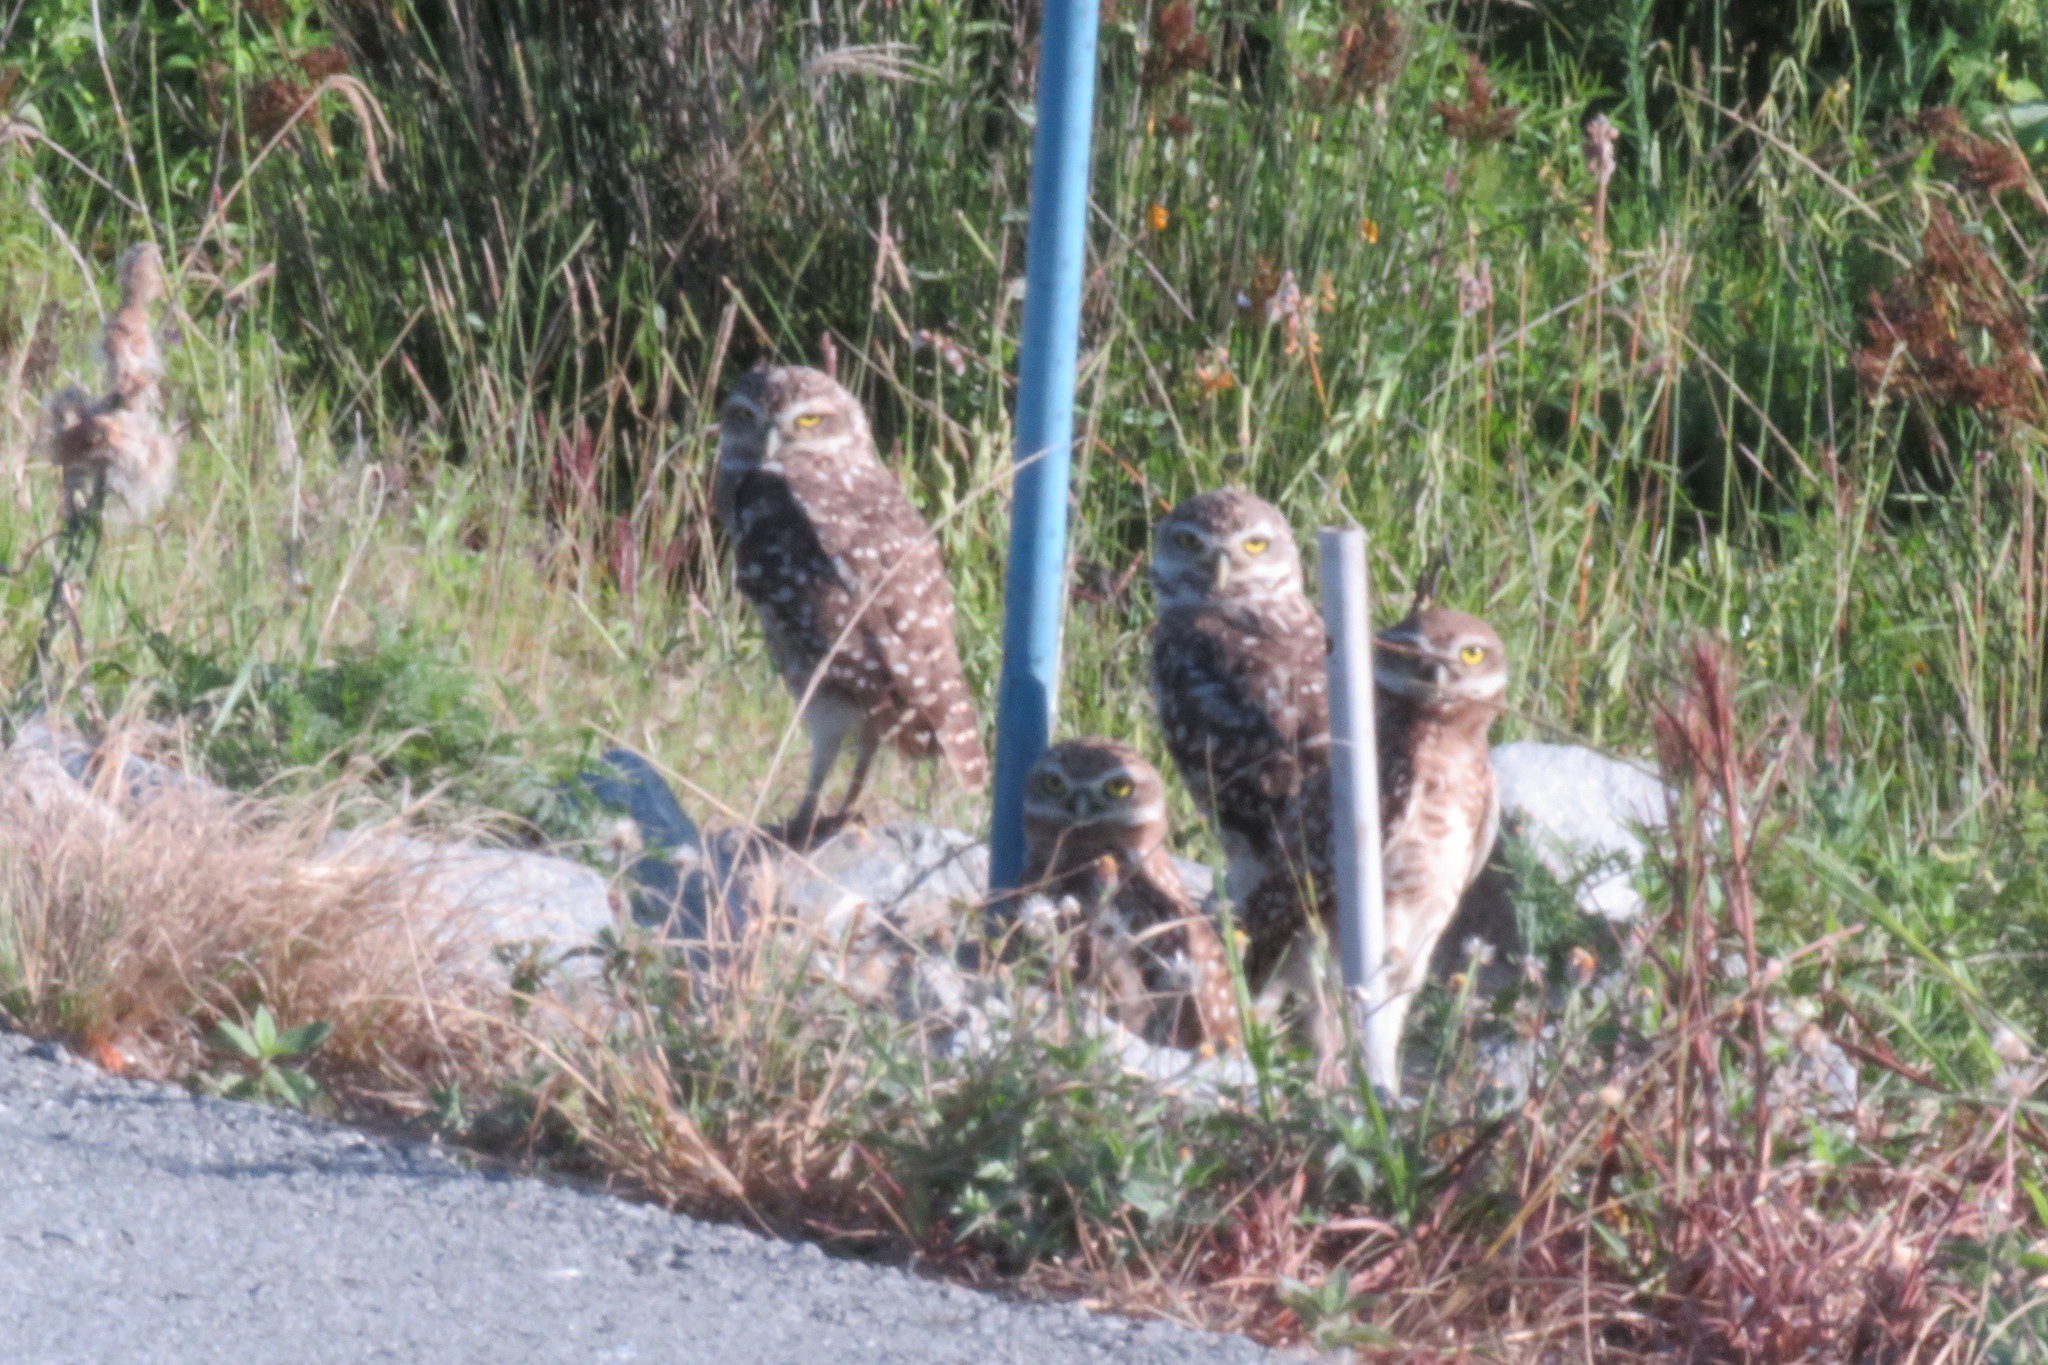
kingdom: Animalia
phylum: Chordata
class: Aves
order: Strigiformes
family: Strigidae
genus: Athene
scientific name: Athene cunicularia
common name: Burrowing owl
